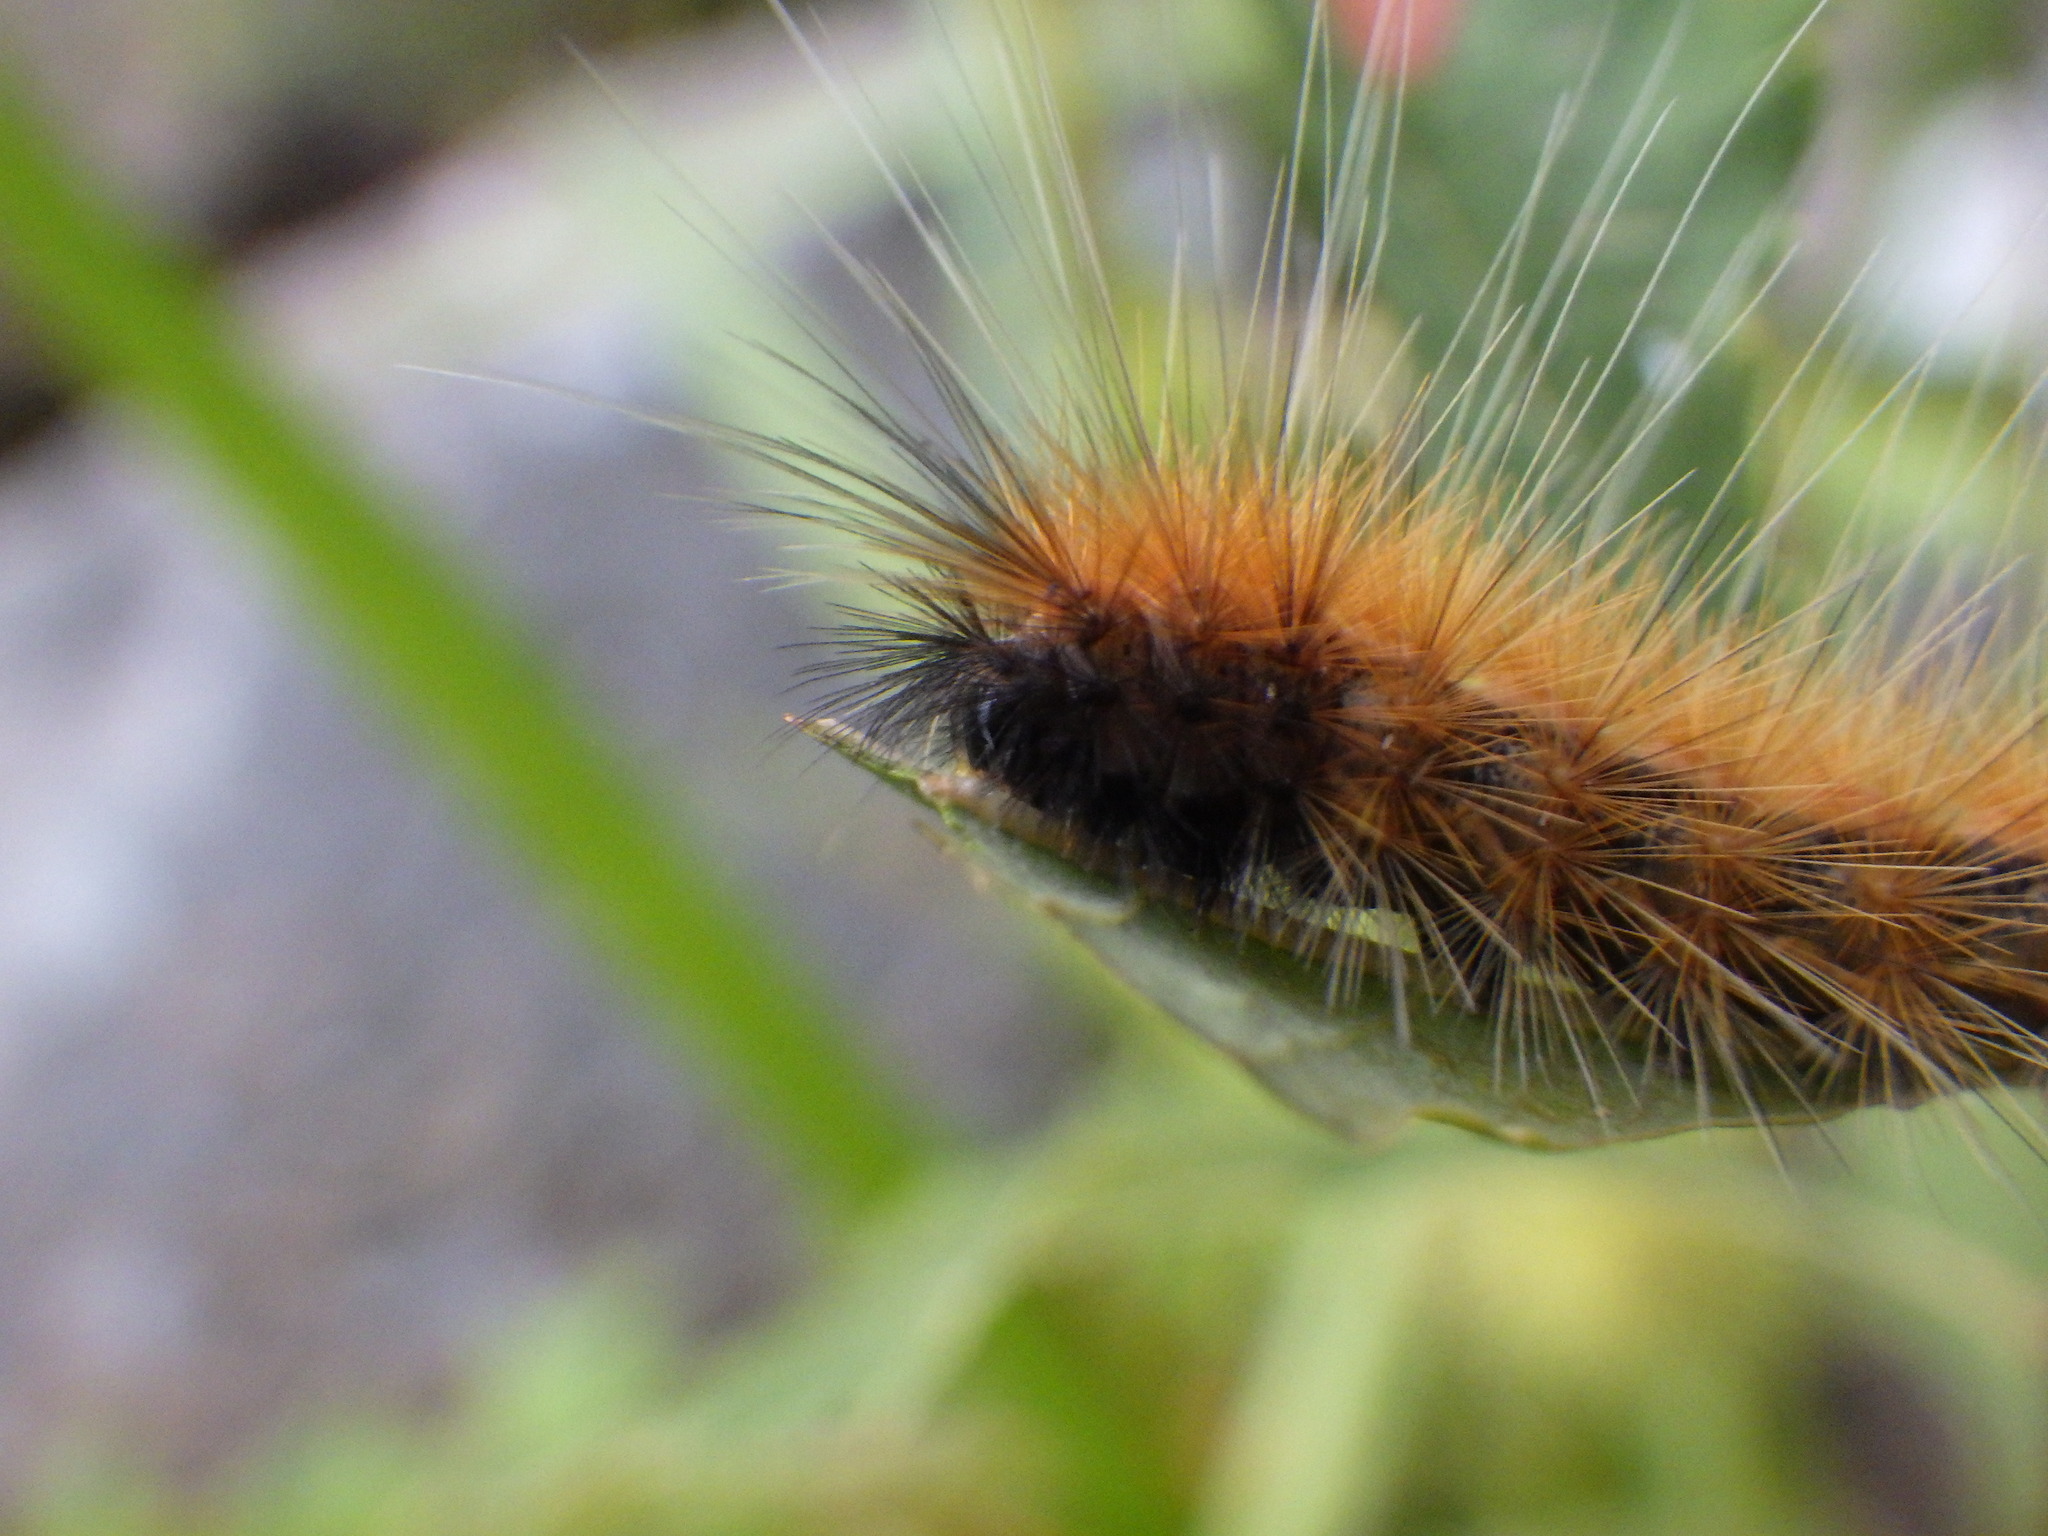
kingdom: Animalia
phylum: Arthropoda
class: Insecta
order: Lepidoptera
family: Erebidae
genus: Spilosoma
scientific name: Spilosoma virginica
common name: Virginia tiger moth
